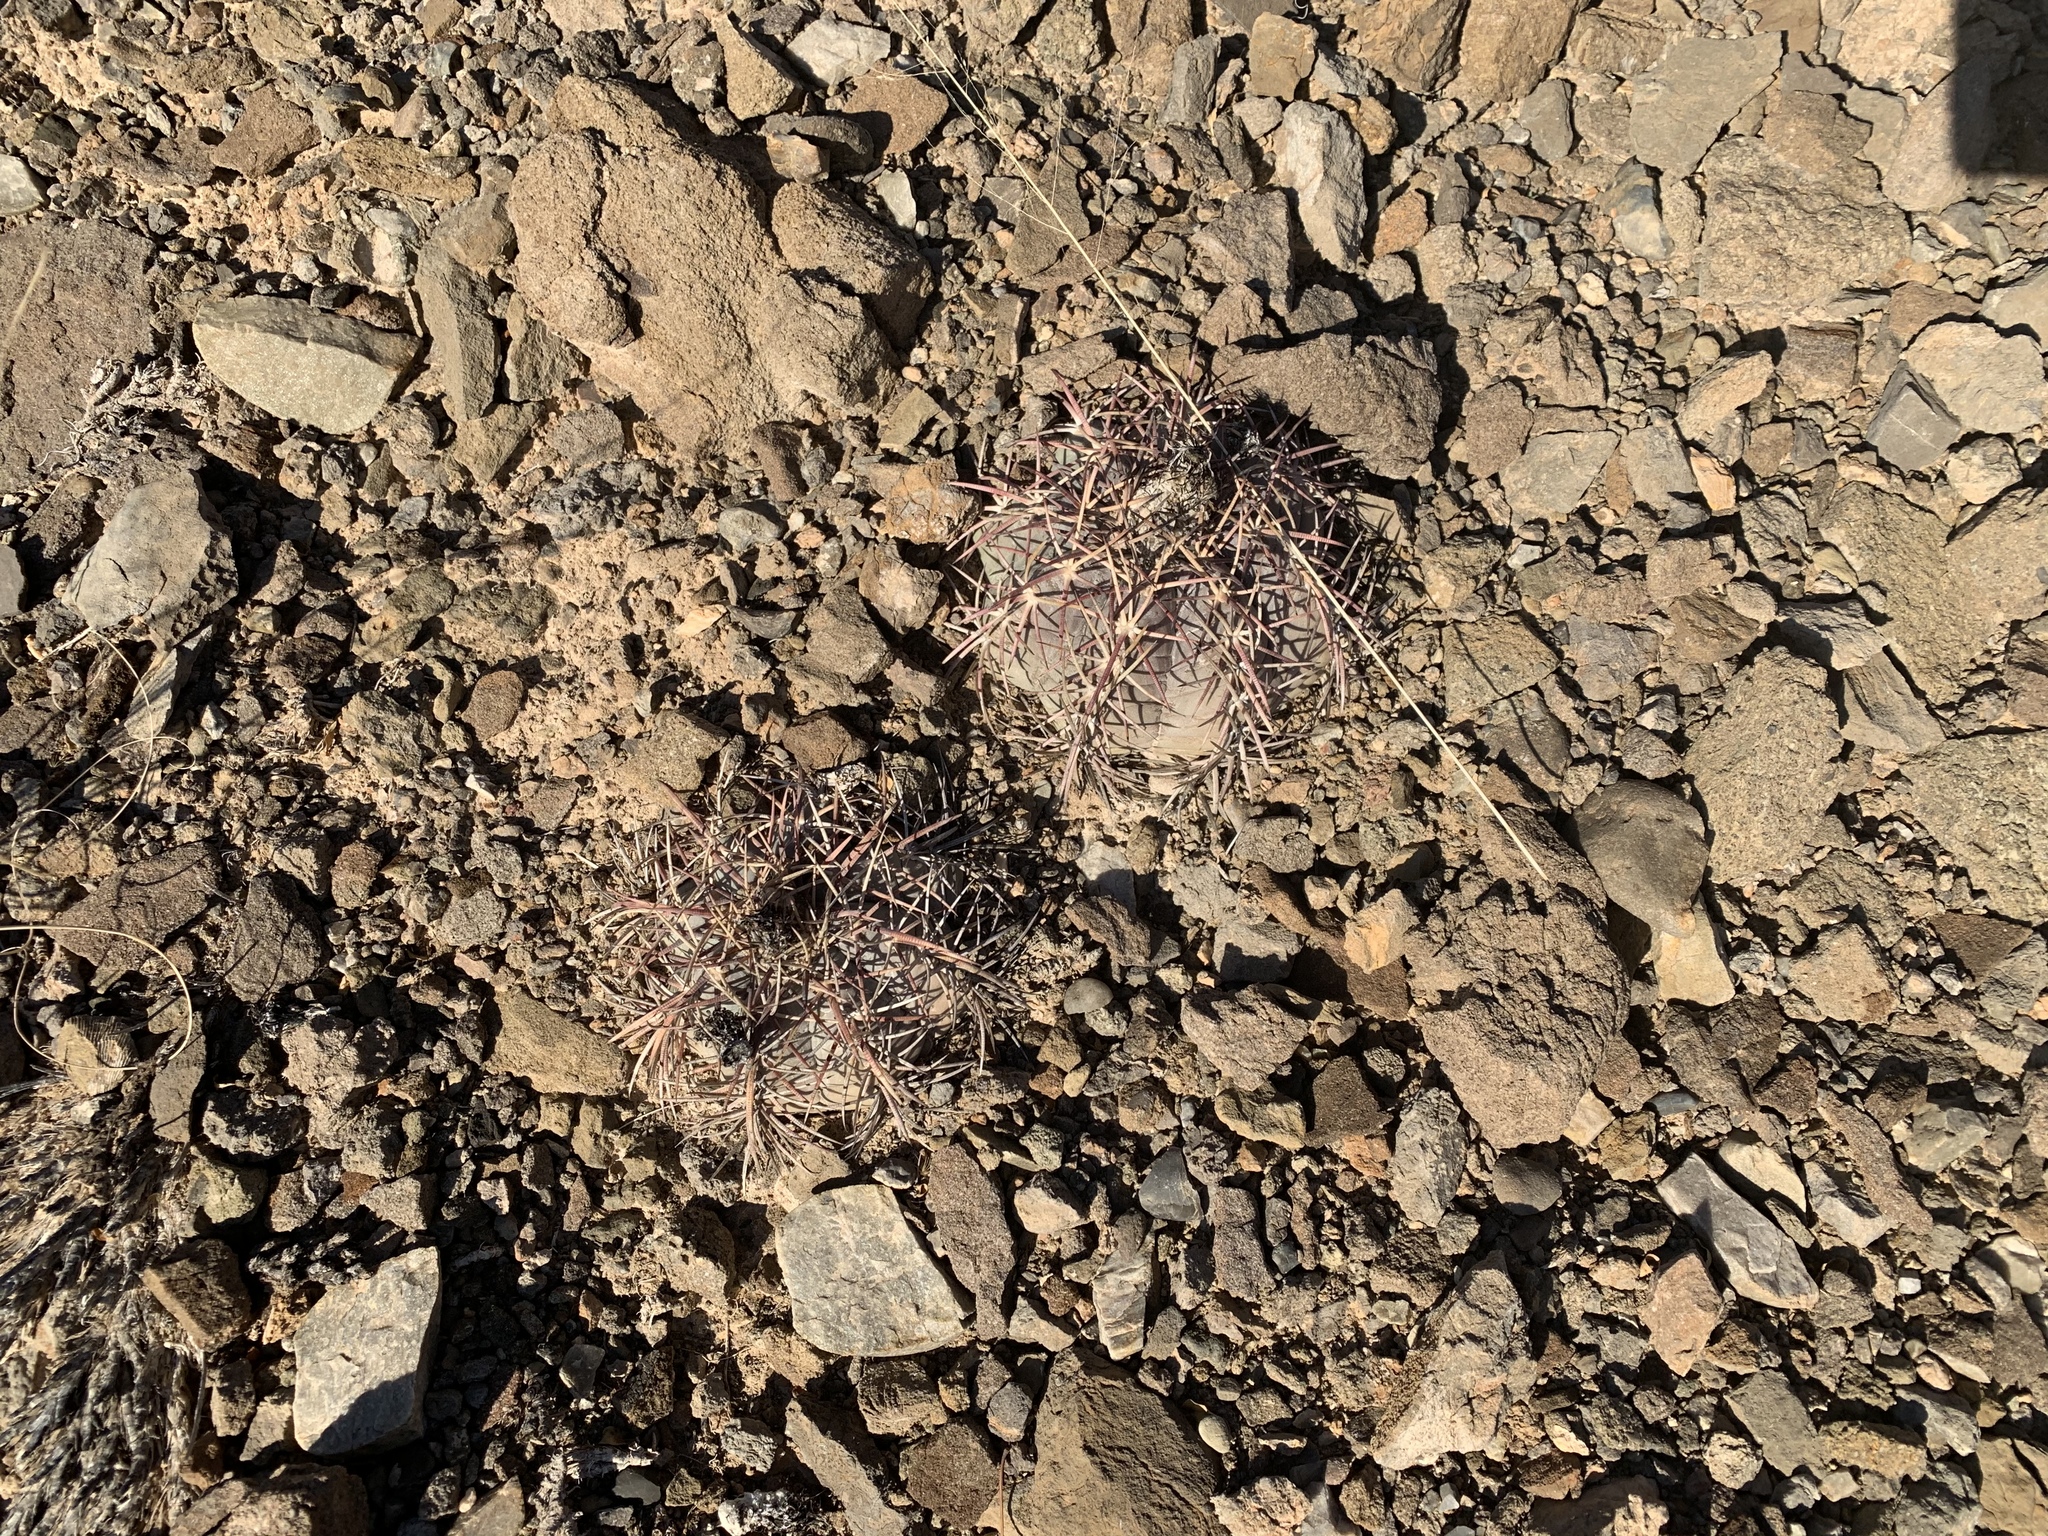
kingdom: Plantae
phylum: Tracheophyta
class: Magnoliopsida
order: Caryophyllales
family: Cactaceae
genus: Echinocactus
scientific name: Echinocactus horizonthalonius
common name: Devilshead
